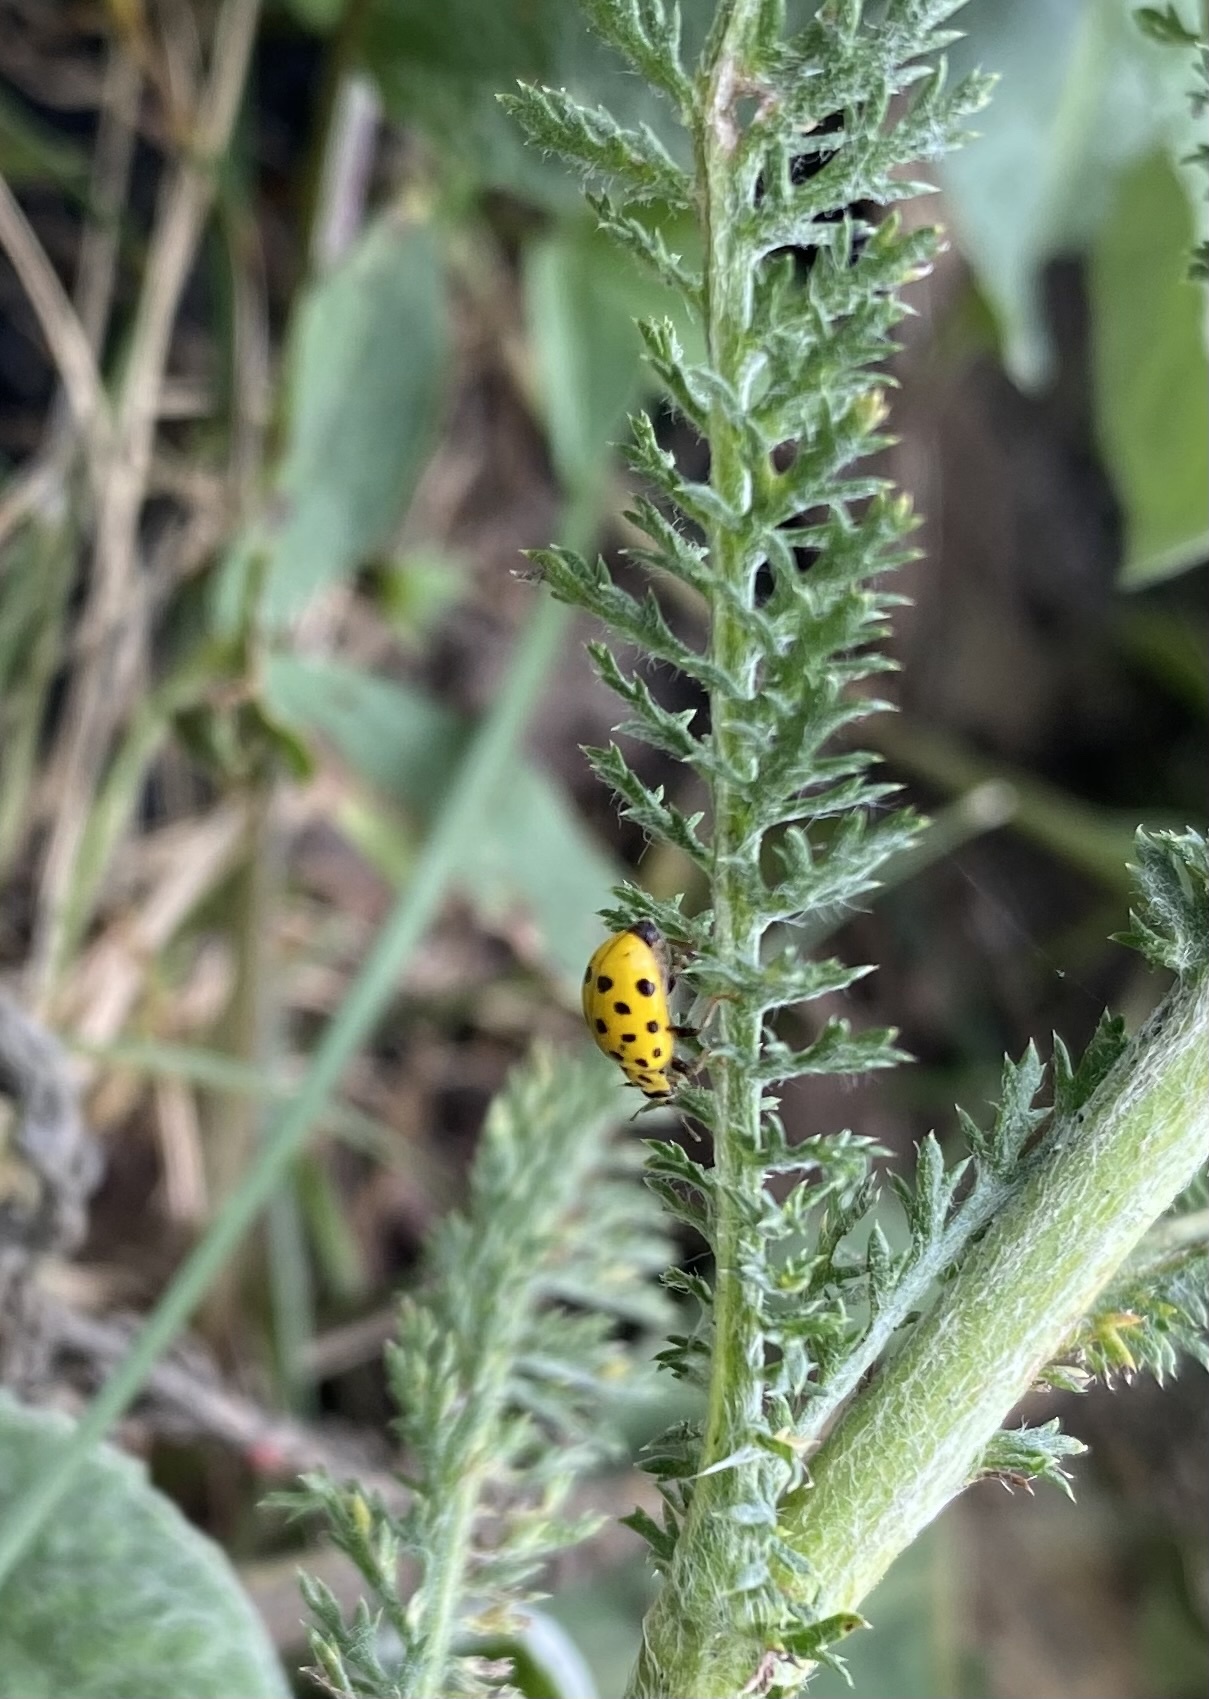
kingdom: Animalia
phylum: Arthropoda
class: Insecta
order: Coleoptera
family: Coccinellidae
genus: Psyllobora
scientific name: Psyllobora vigintiduopunctata
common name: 22-spot ladybird
